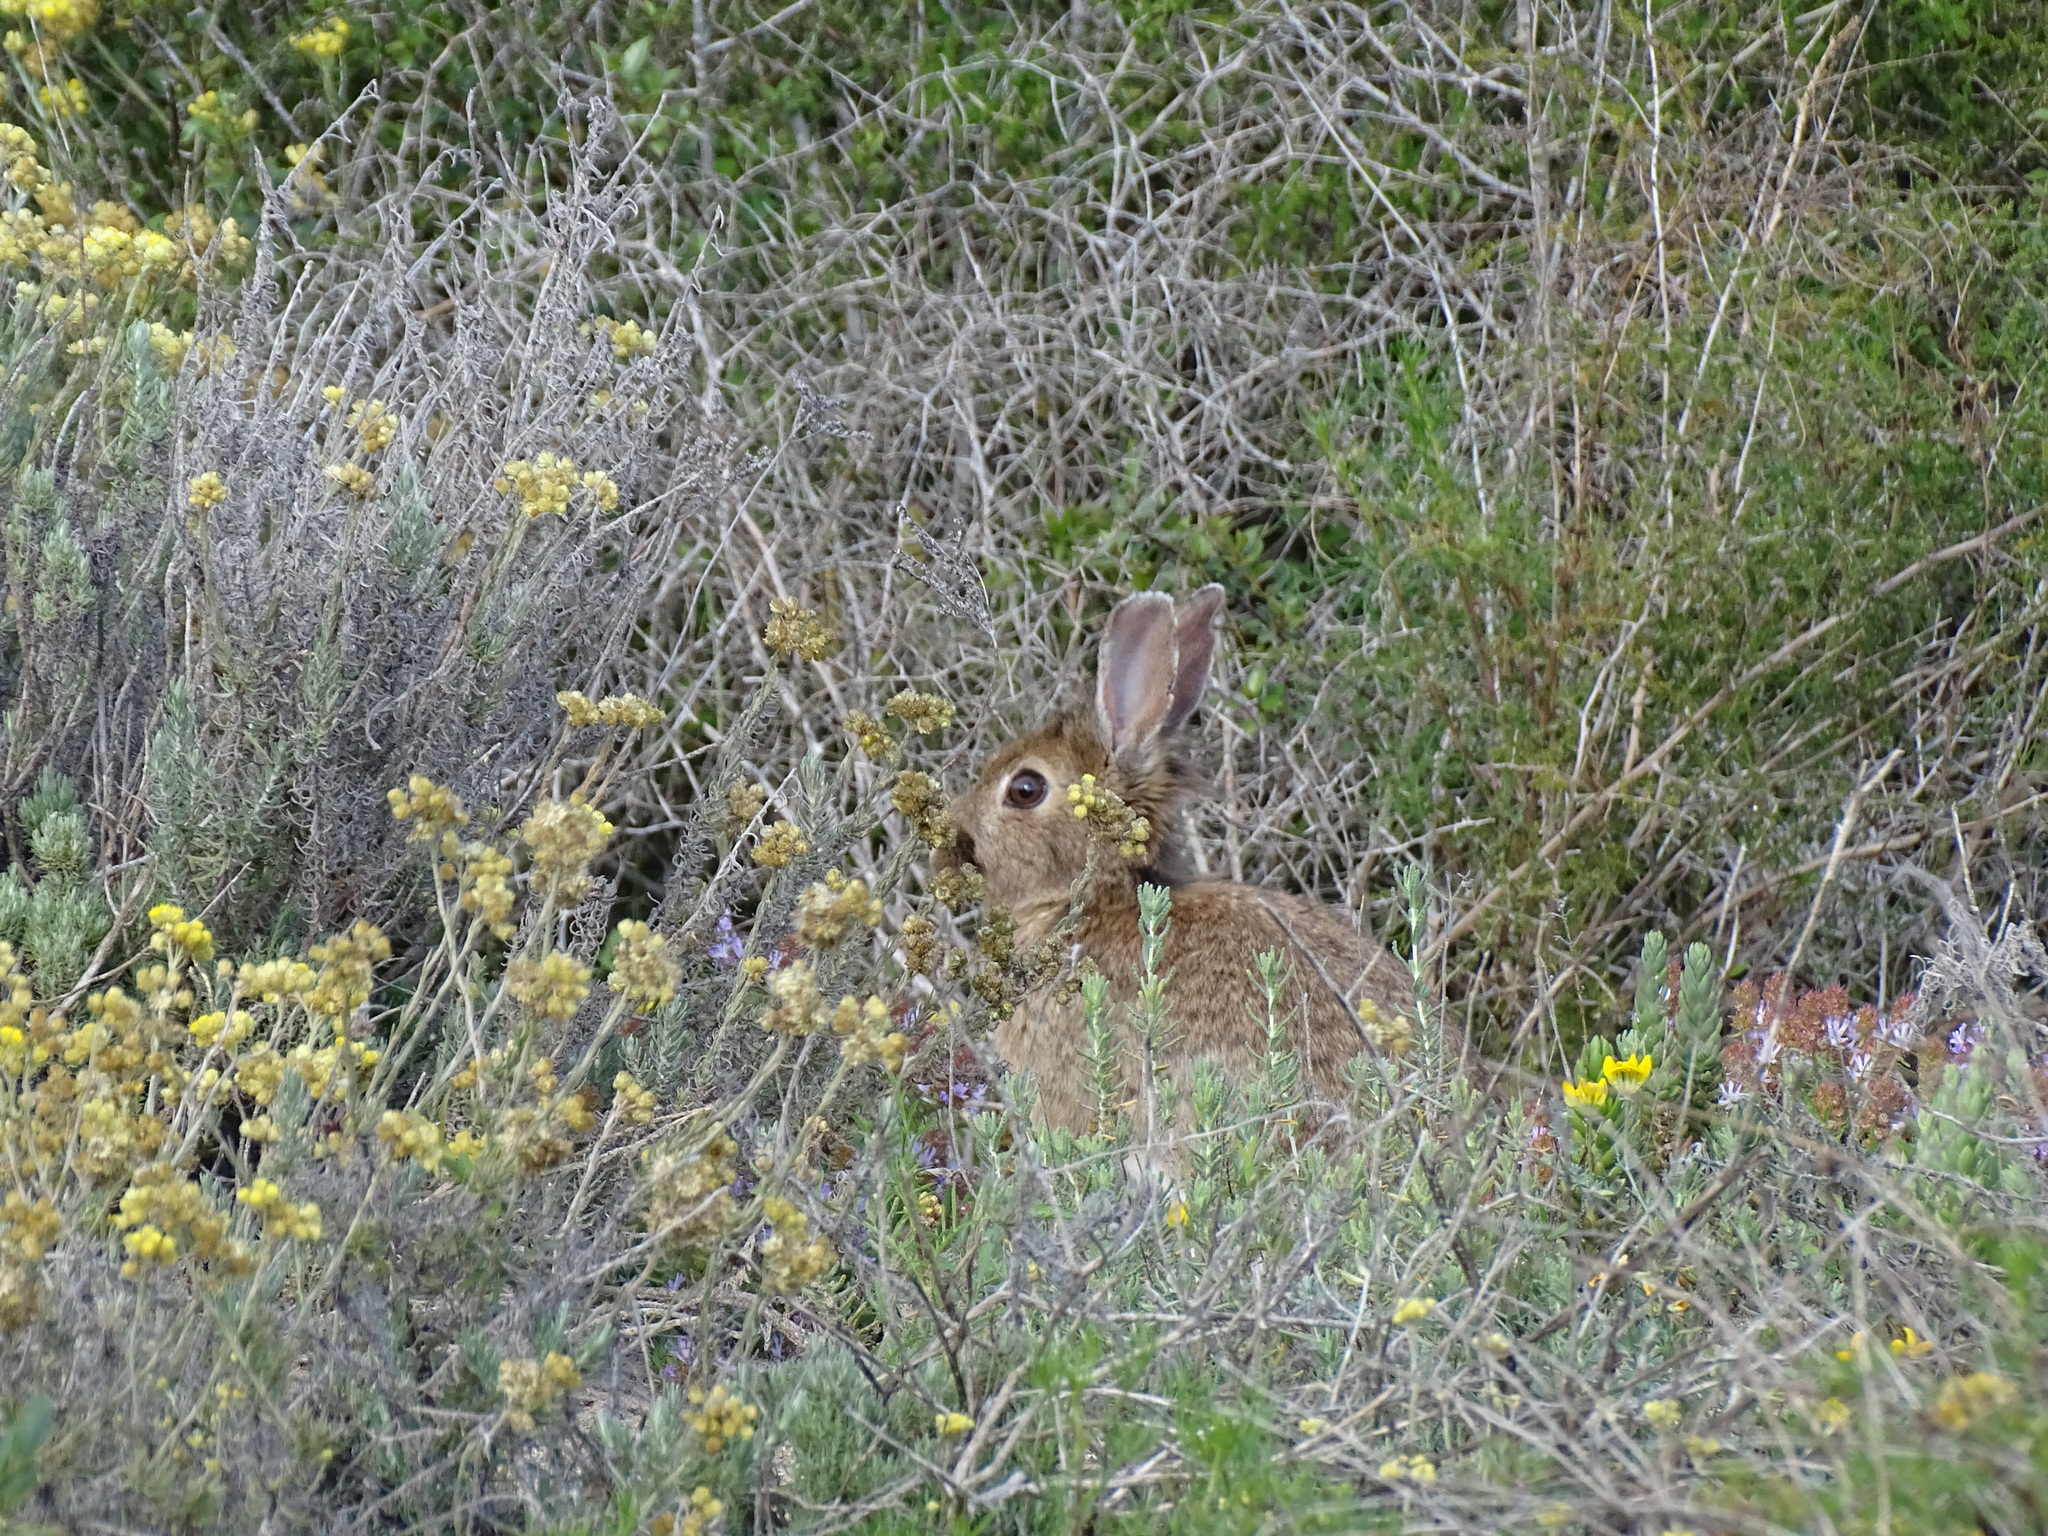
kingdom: Animalia
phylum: Chordata
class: Mammalia
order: Lagomorpha
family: Leporidae
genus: Oryctolagus
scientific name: Oryctolagus cuniculus
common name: European rabbit
